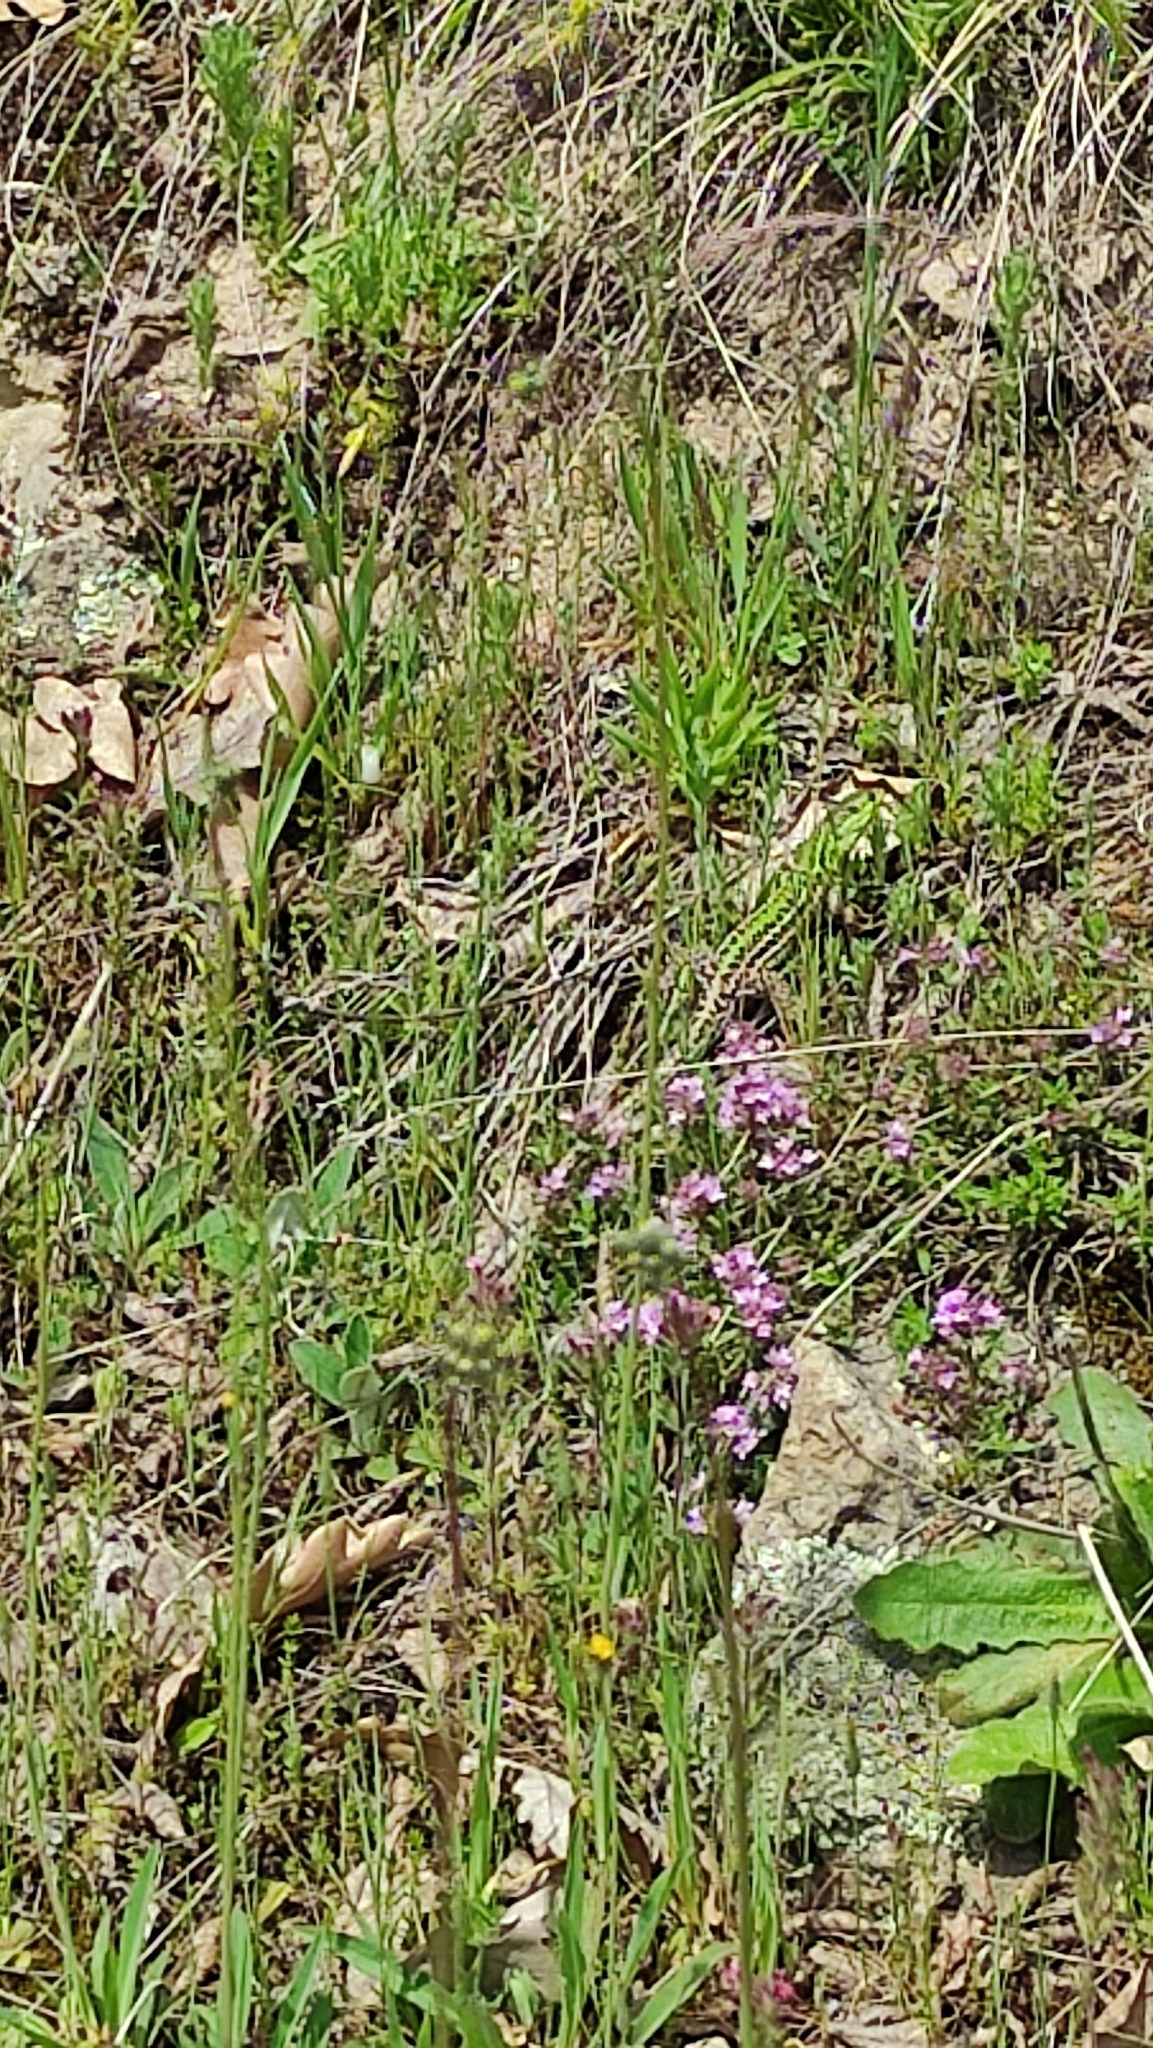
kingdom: Animalia
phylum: Chordata
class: Squamata
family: Lacertidae
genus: Podarcis
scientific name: Podarcis tauricus
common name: Balkan wall lizard
